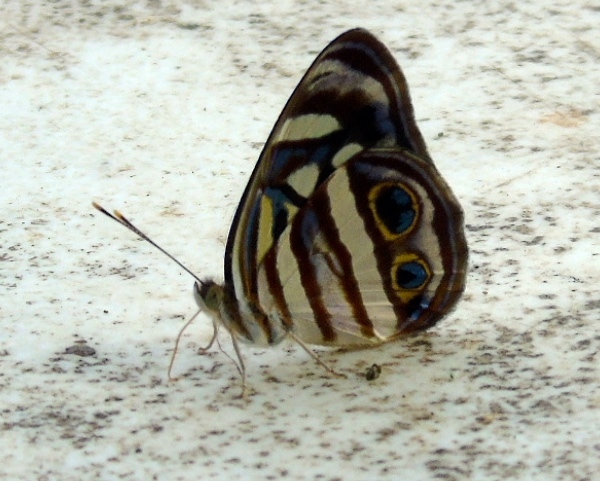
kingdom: Animalia
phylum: Arthropoda
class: Insecta
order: Lepidoptera
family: Nymphalidae
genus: Dynamine
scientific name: Dynamine mylitta
